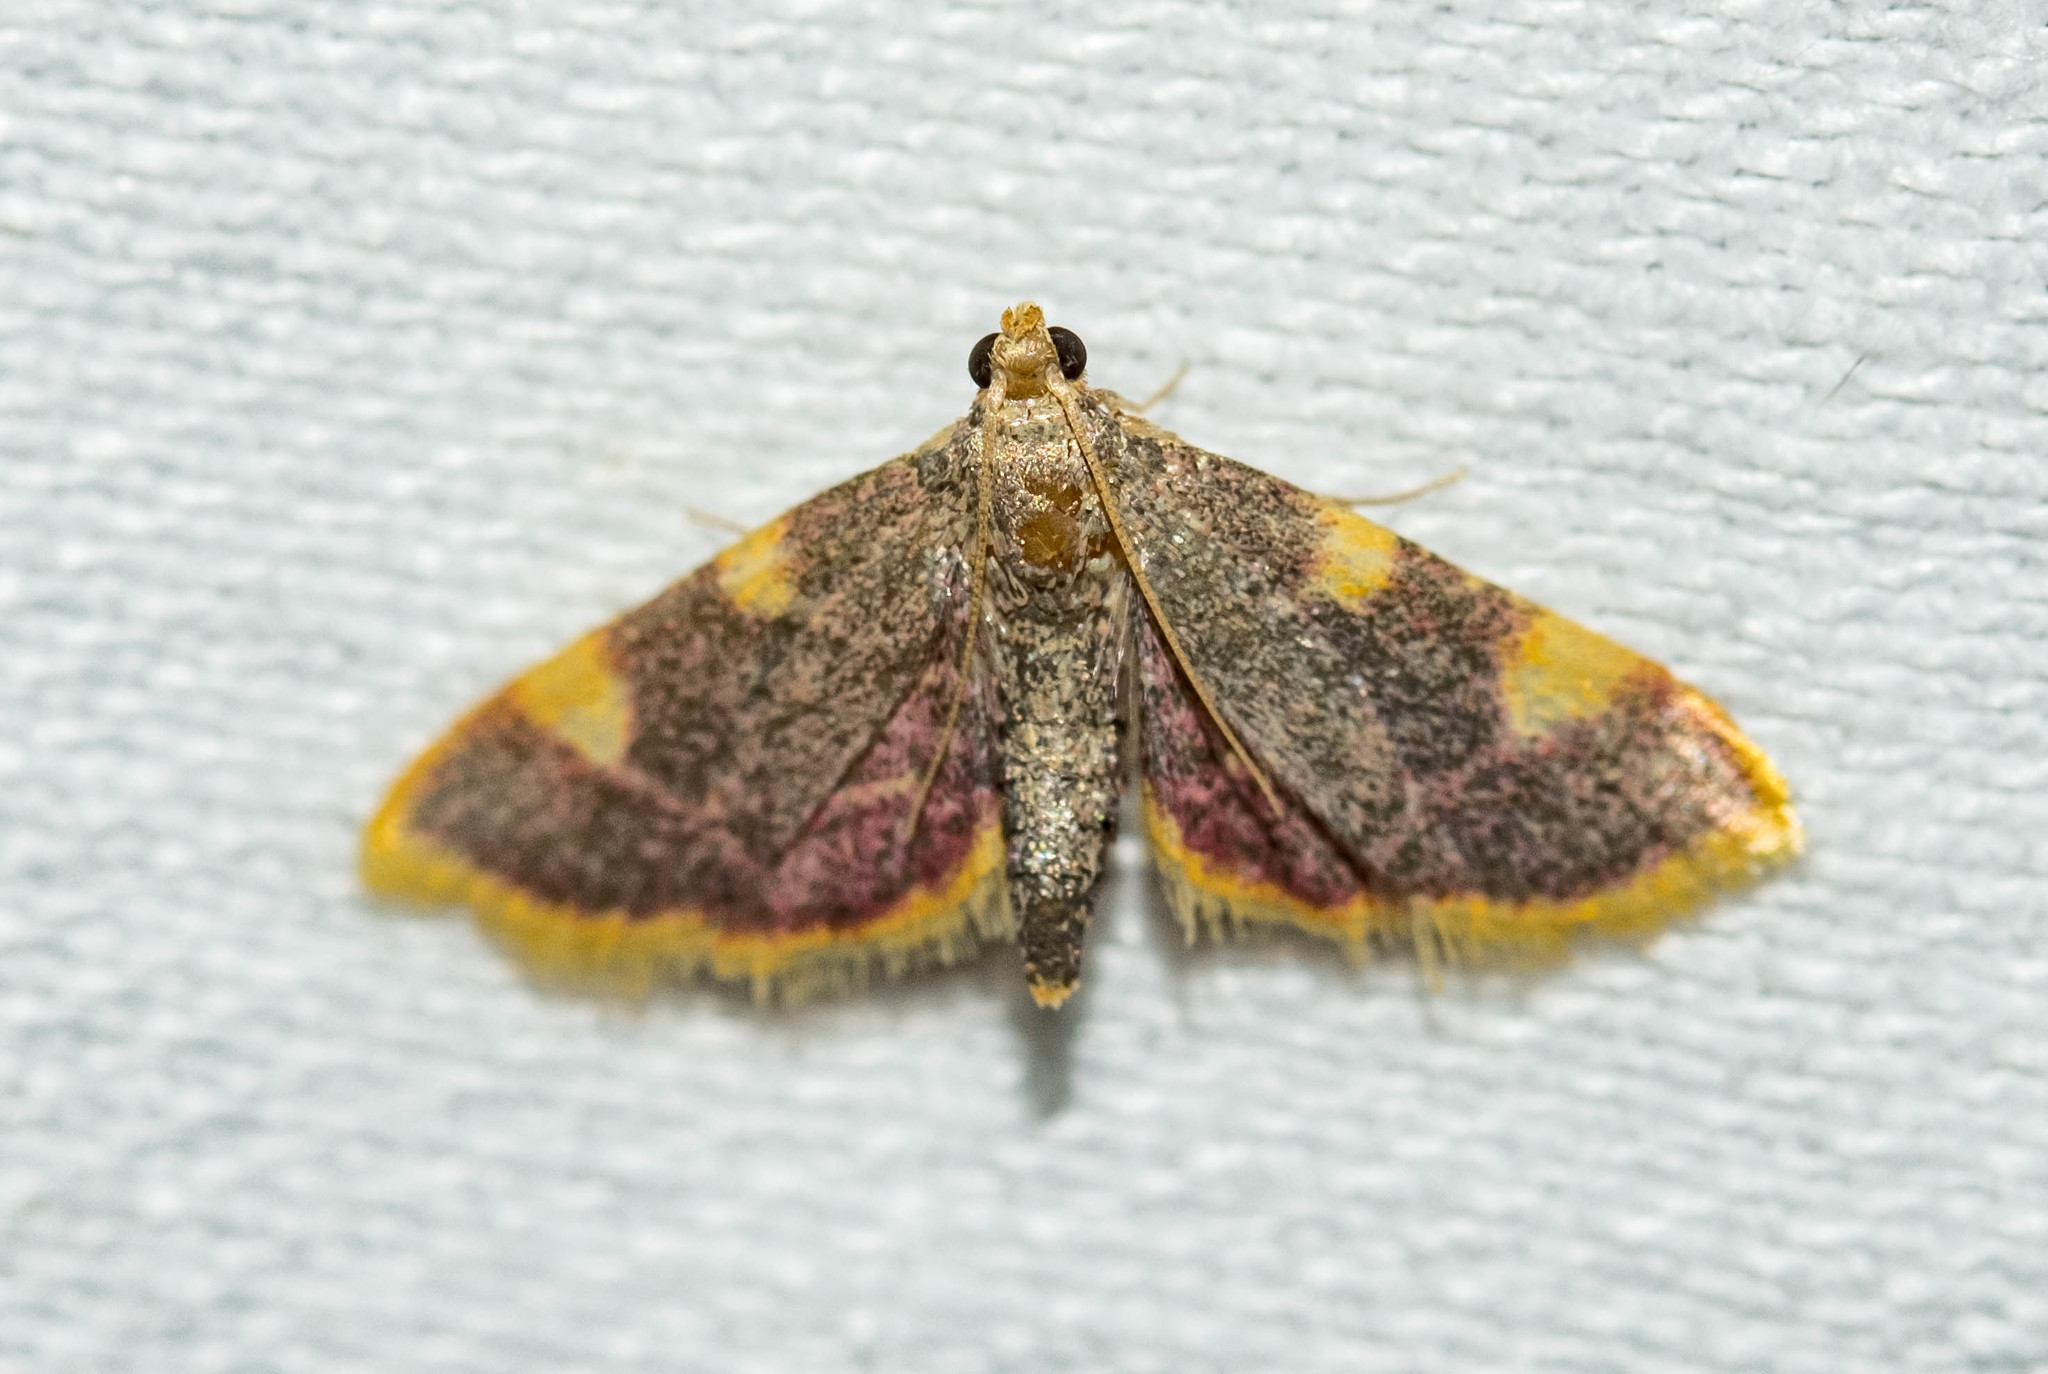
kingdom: Animalia
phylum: Arthropoda
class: Insecta
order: Lepidoptera
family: Pyralidae
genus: Hypsopygia
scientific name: Hypsopygia costalis
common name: Gold triangle
